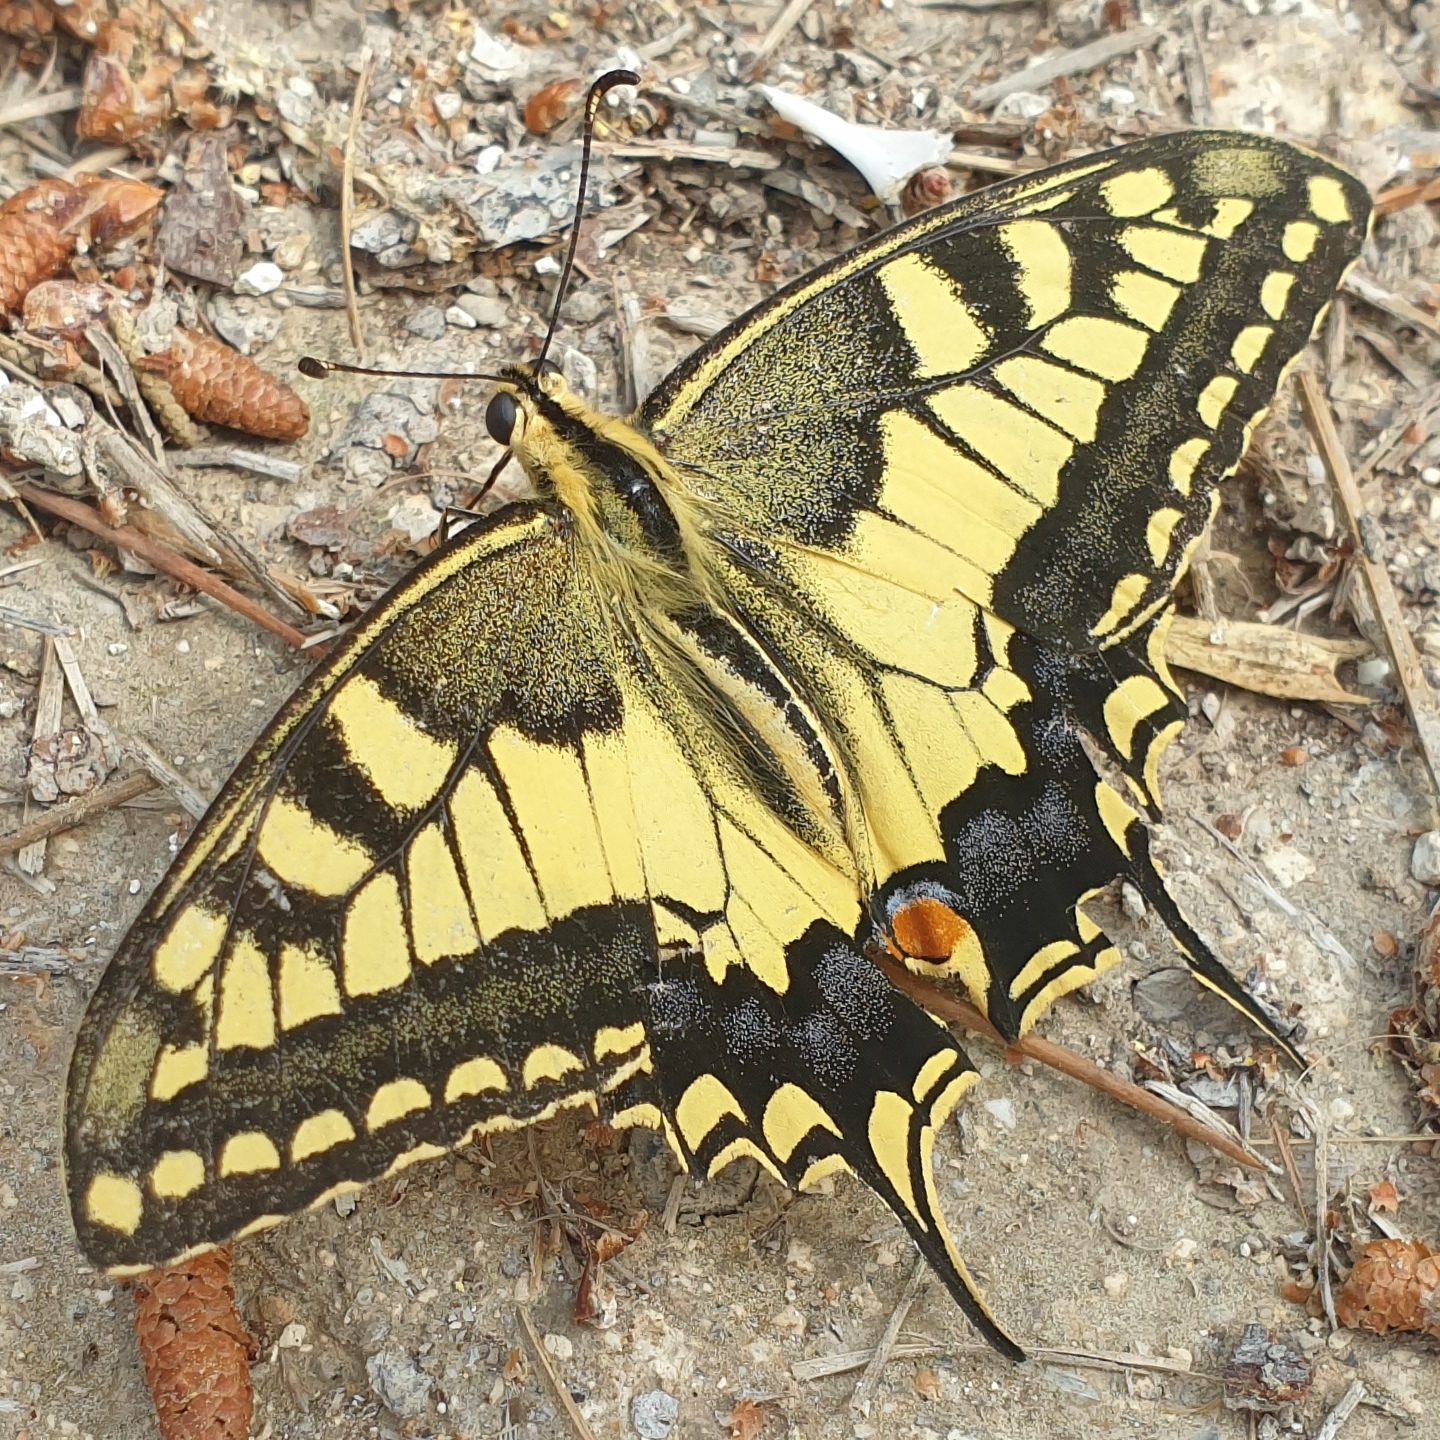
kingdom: Animalia
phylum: Arthropoda
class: Insecta
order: Lepidoptera
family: Papilionidae
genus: Papilio
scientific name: Papilio machaon
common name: Swallowtail
